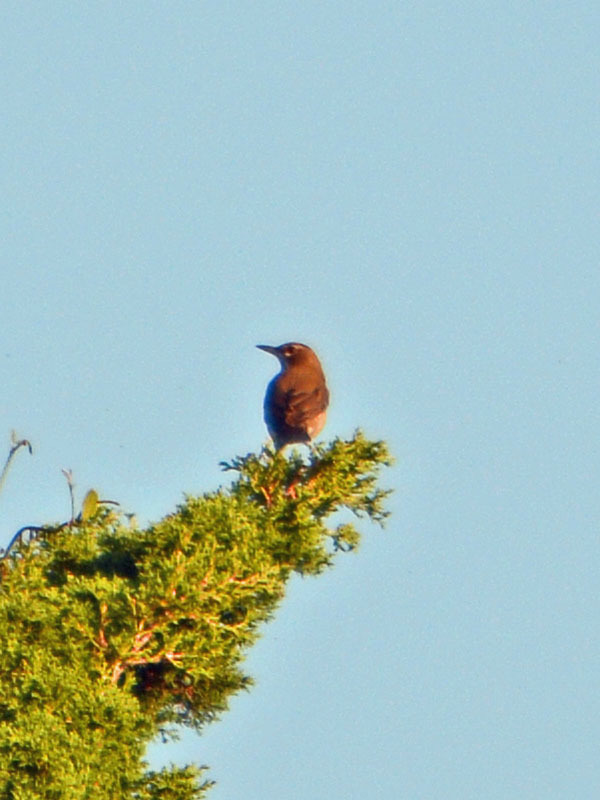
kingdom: Animalia
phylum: Chordata
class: Aves
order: Passeriformes
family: Turdidae
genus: Turdus
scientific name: Turdus migratorius
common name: American robin
